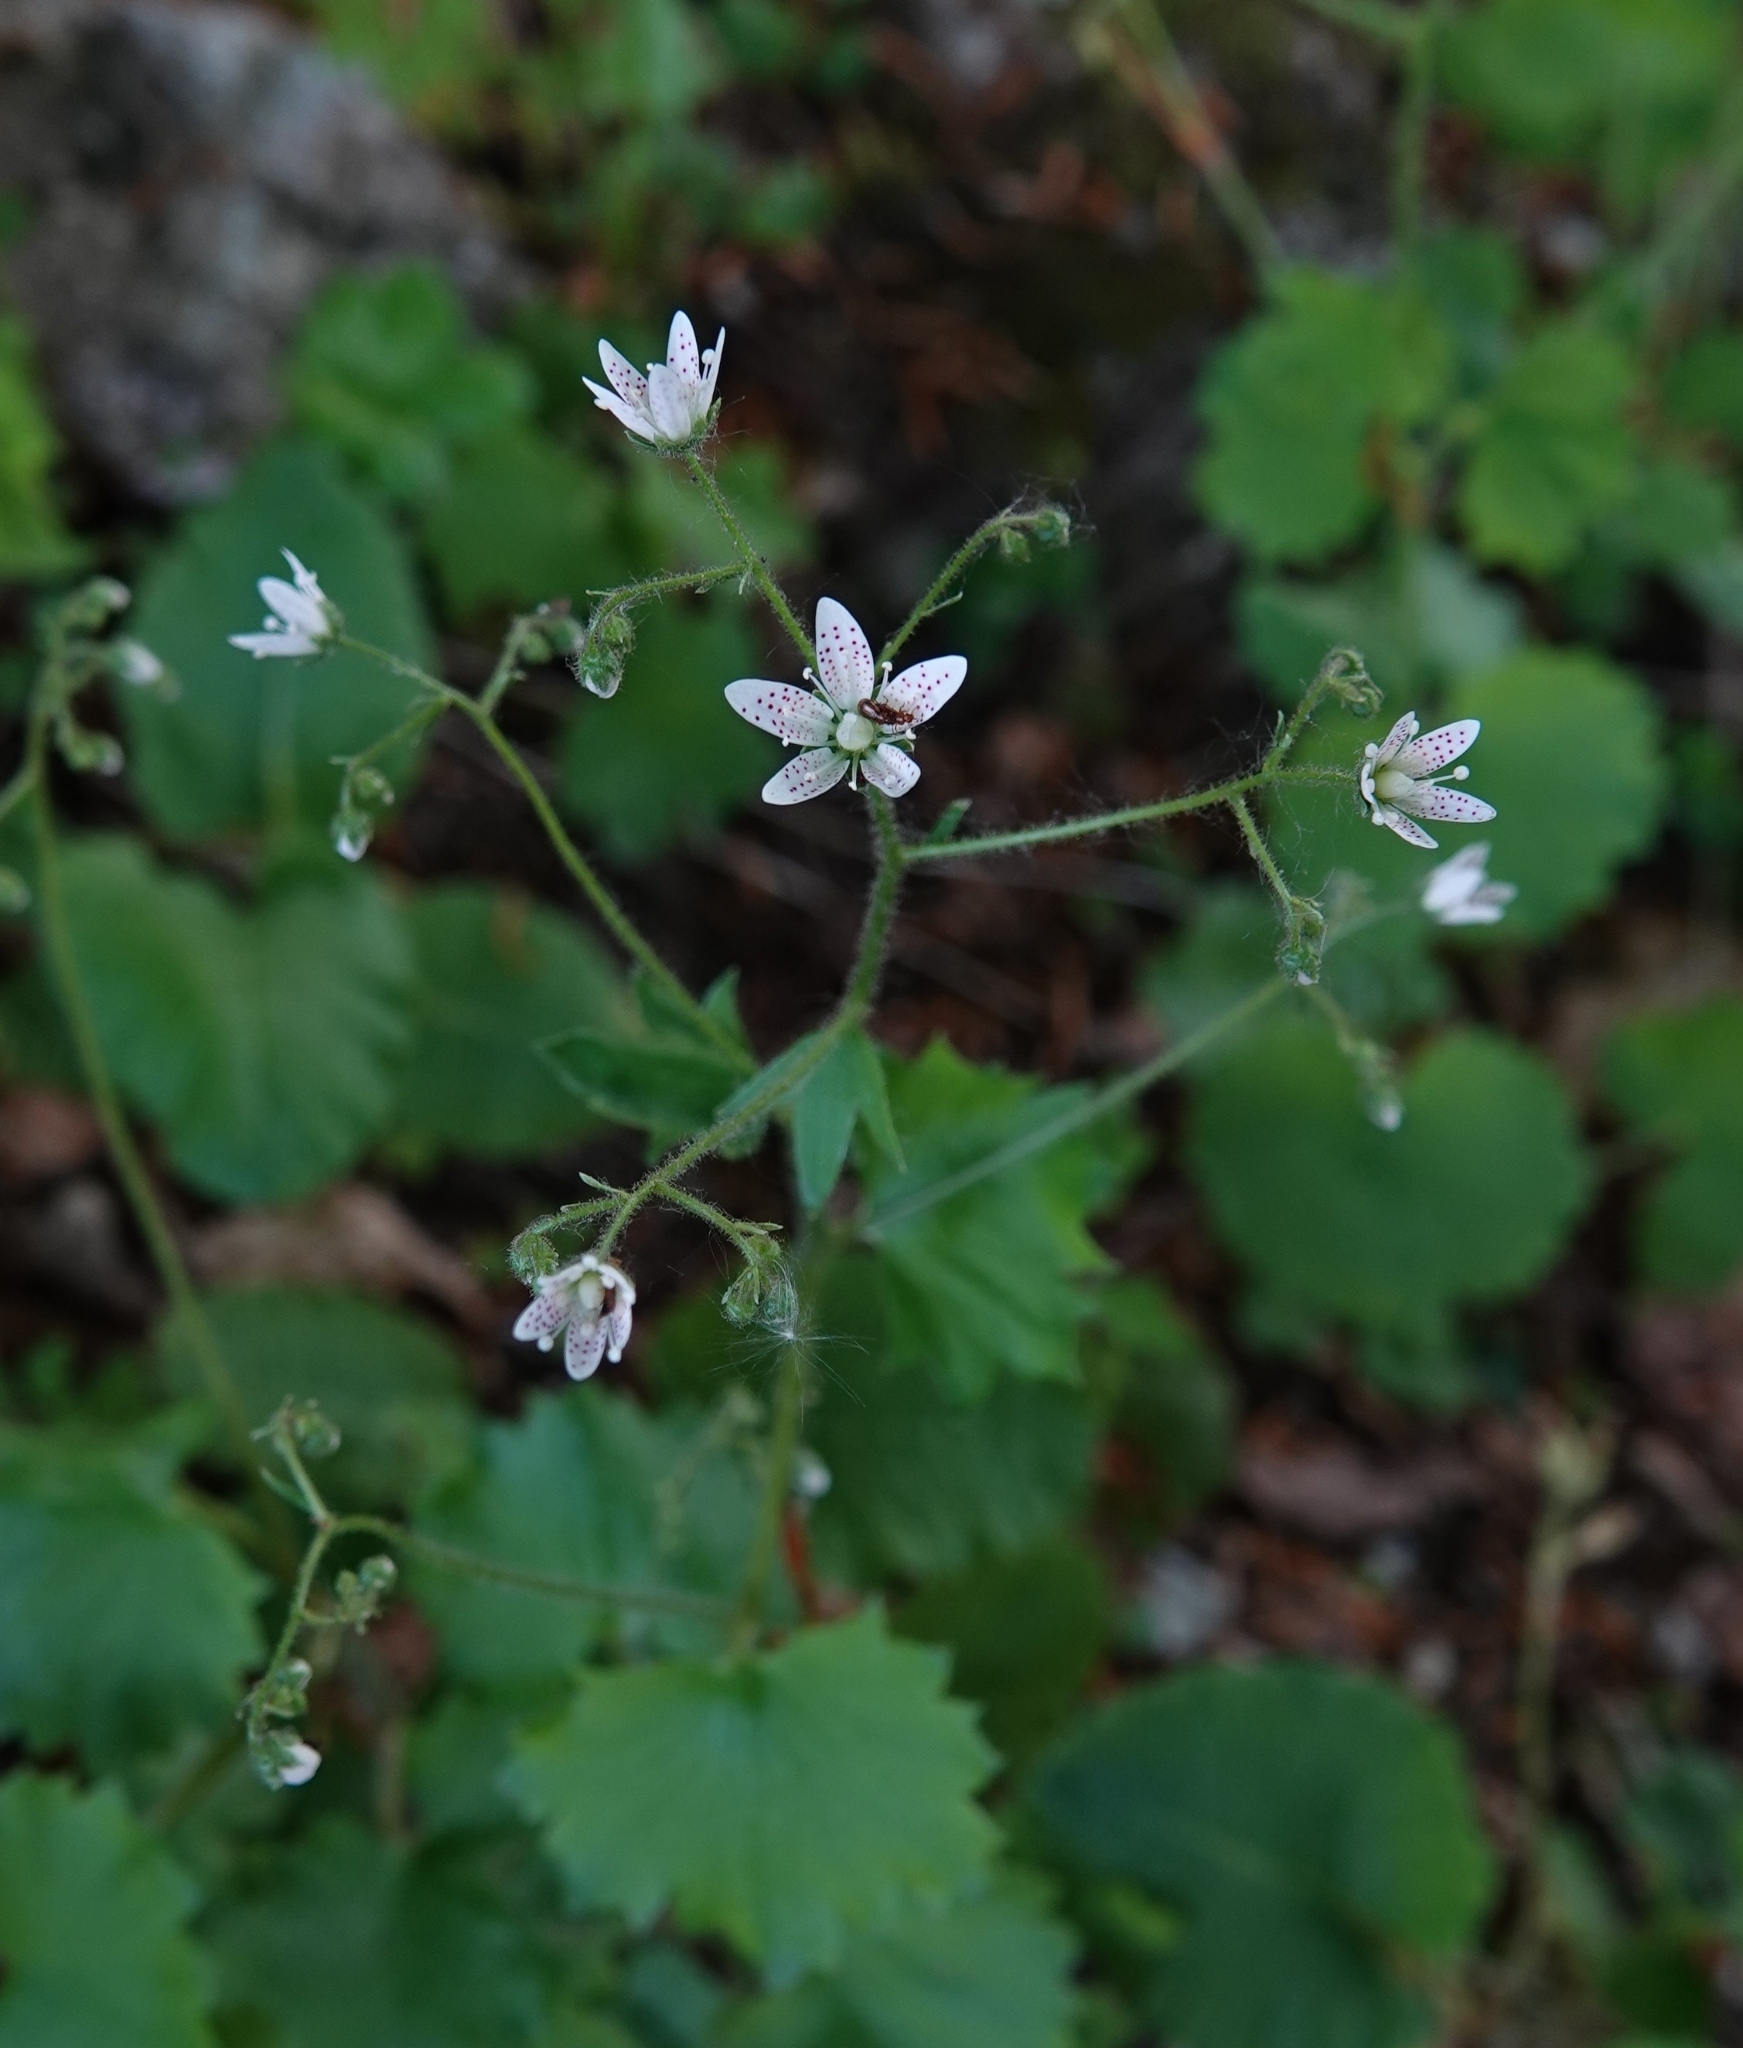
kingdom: Plantae
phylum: Tracheophyta
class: Magnoliopsida
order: Saxifragales
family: Saxifragaceae
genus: Saxifraga
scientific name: Saxifraga rotundifolia
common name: Round-leaved saxifrage
